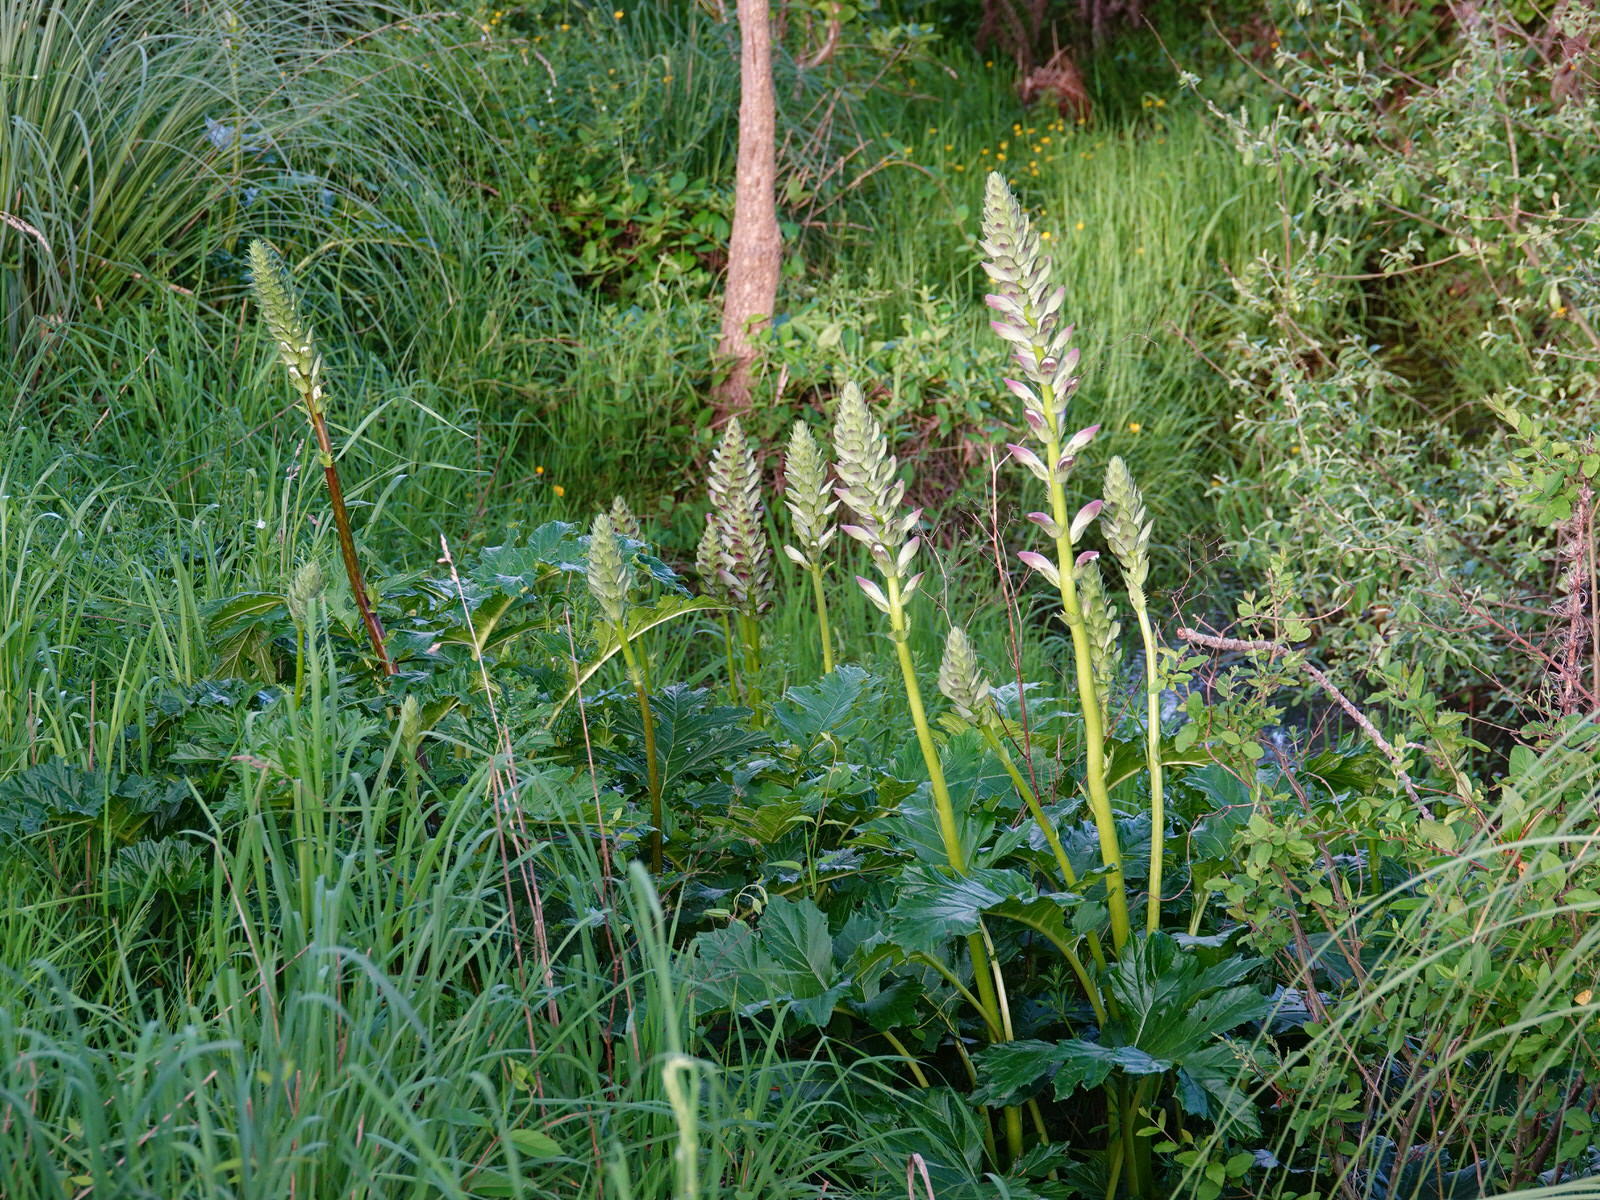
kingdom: Plantae
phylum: Tracheophyta
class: Magnoliopsida
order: Lamiales
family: Acanthaceae
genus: Acanthus
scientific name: Acanthus mollis
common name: Bear's-breech
